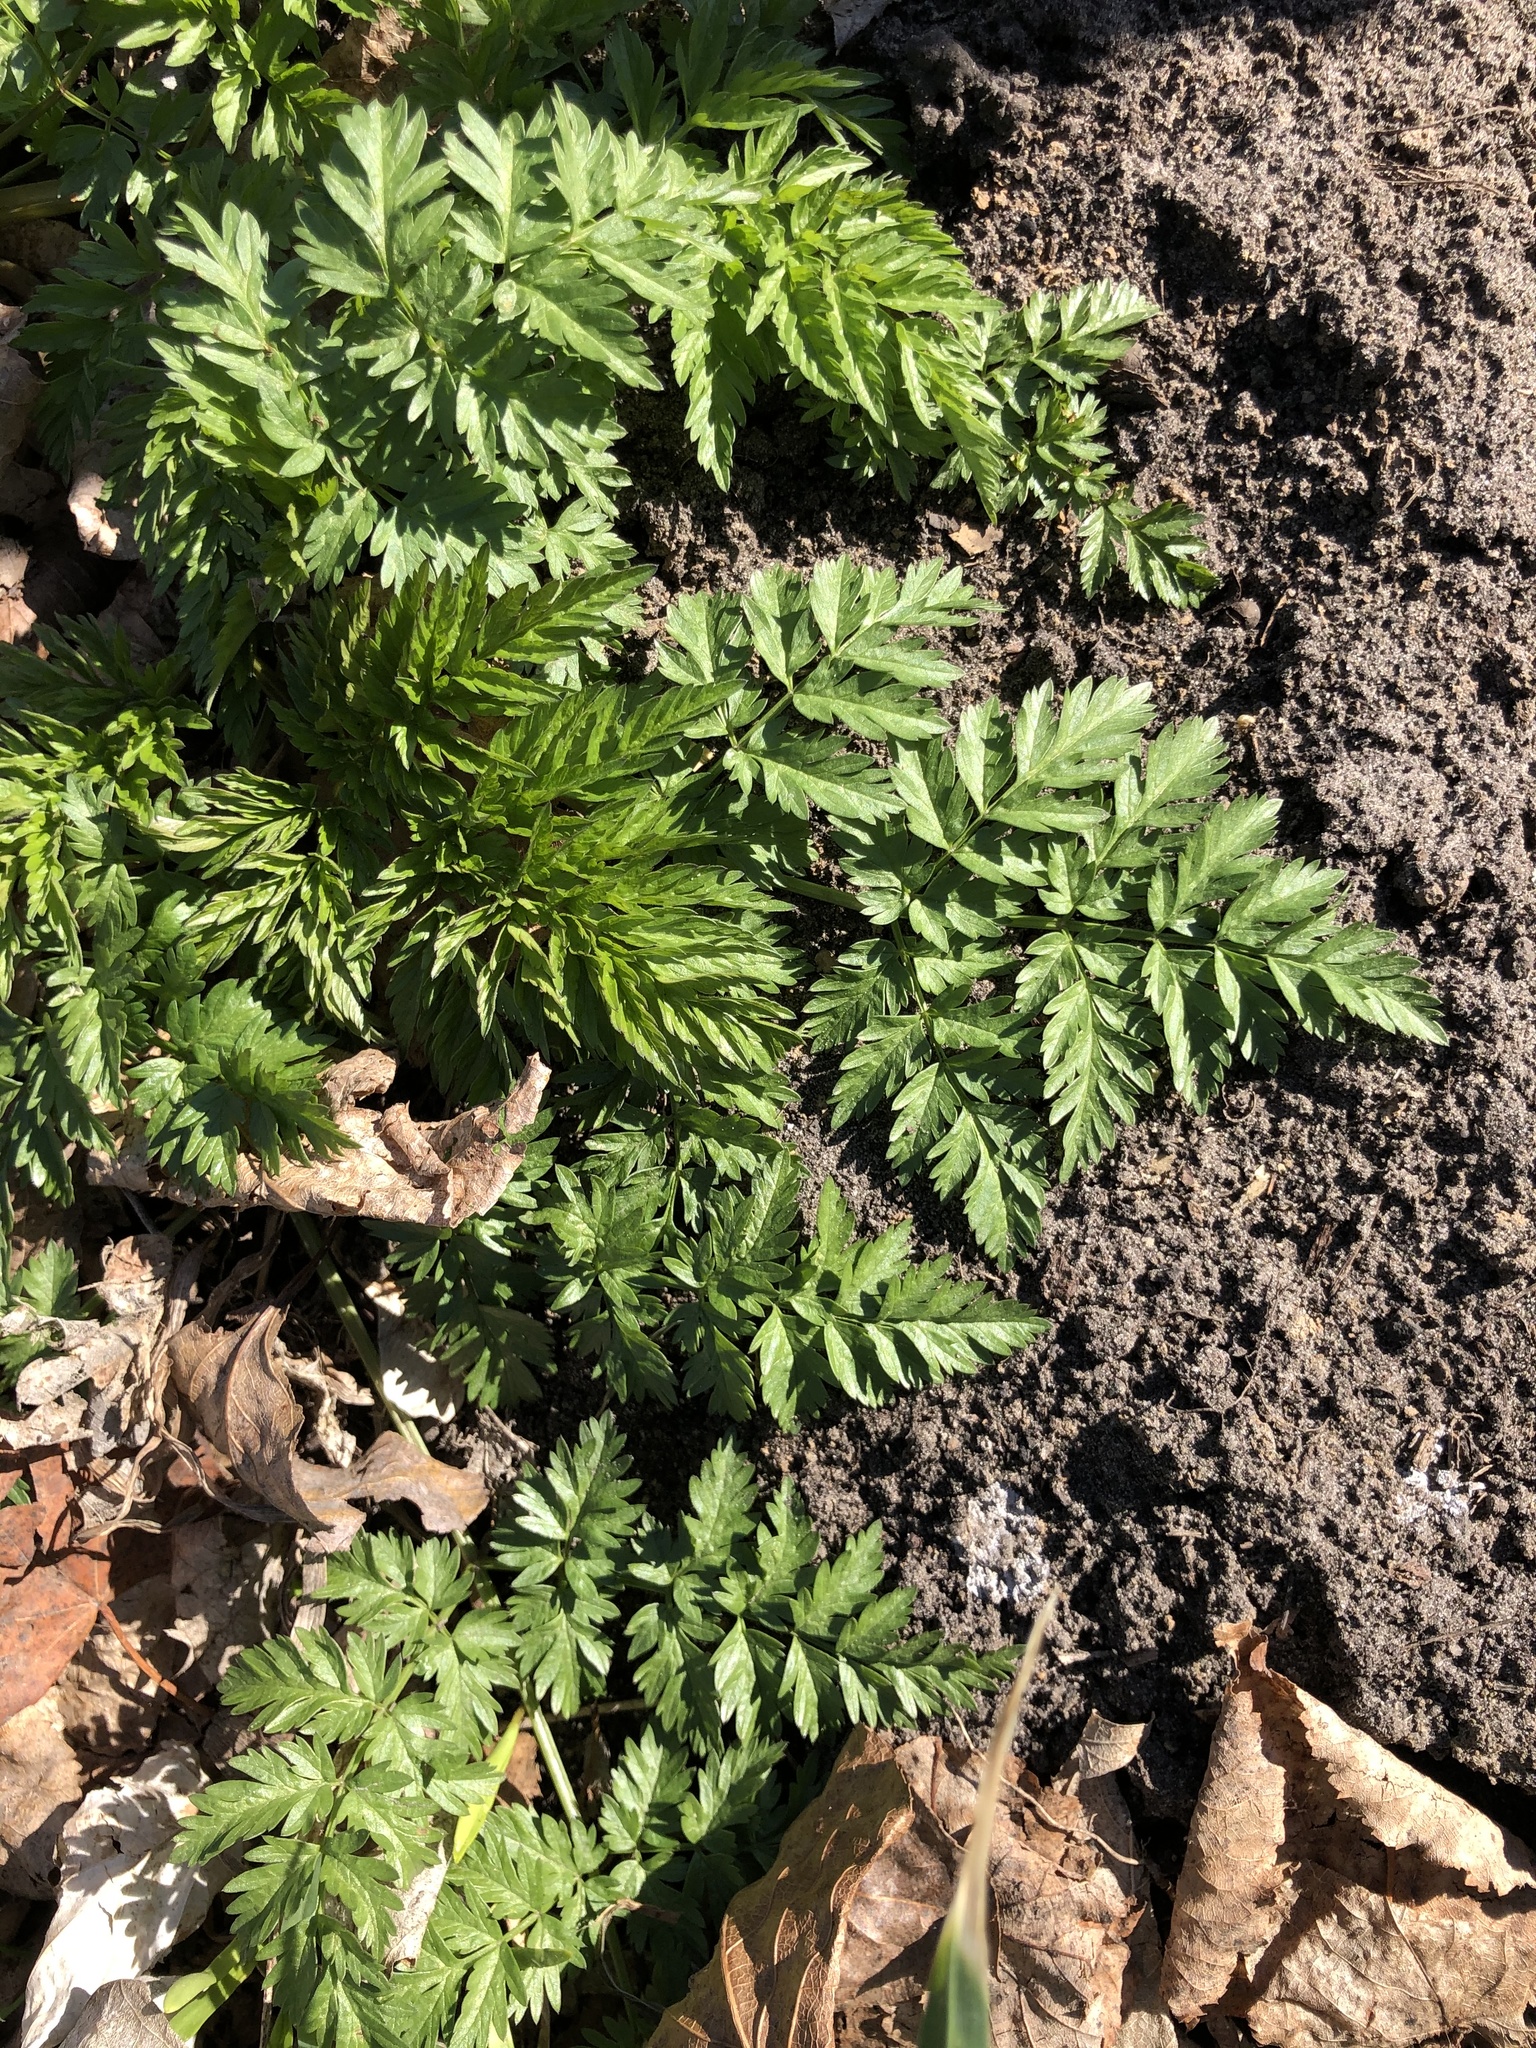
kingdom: Plantae
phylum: Tracheophyta
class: Magnoliopsida
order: Apiales
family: Apiaceae
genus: Anthriscus
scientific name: Anthriscus sylvestris
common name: Cow parsley
